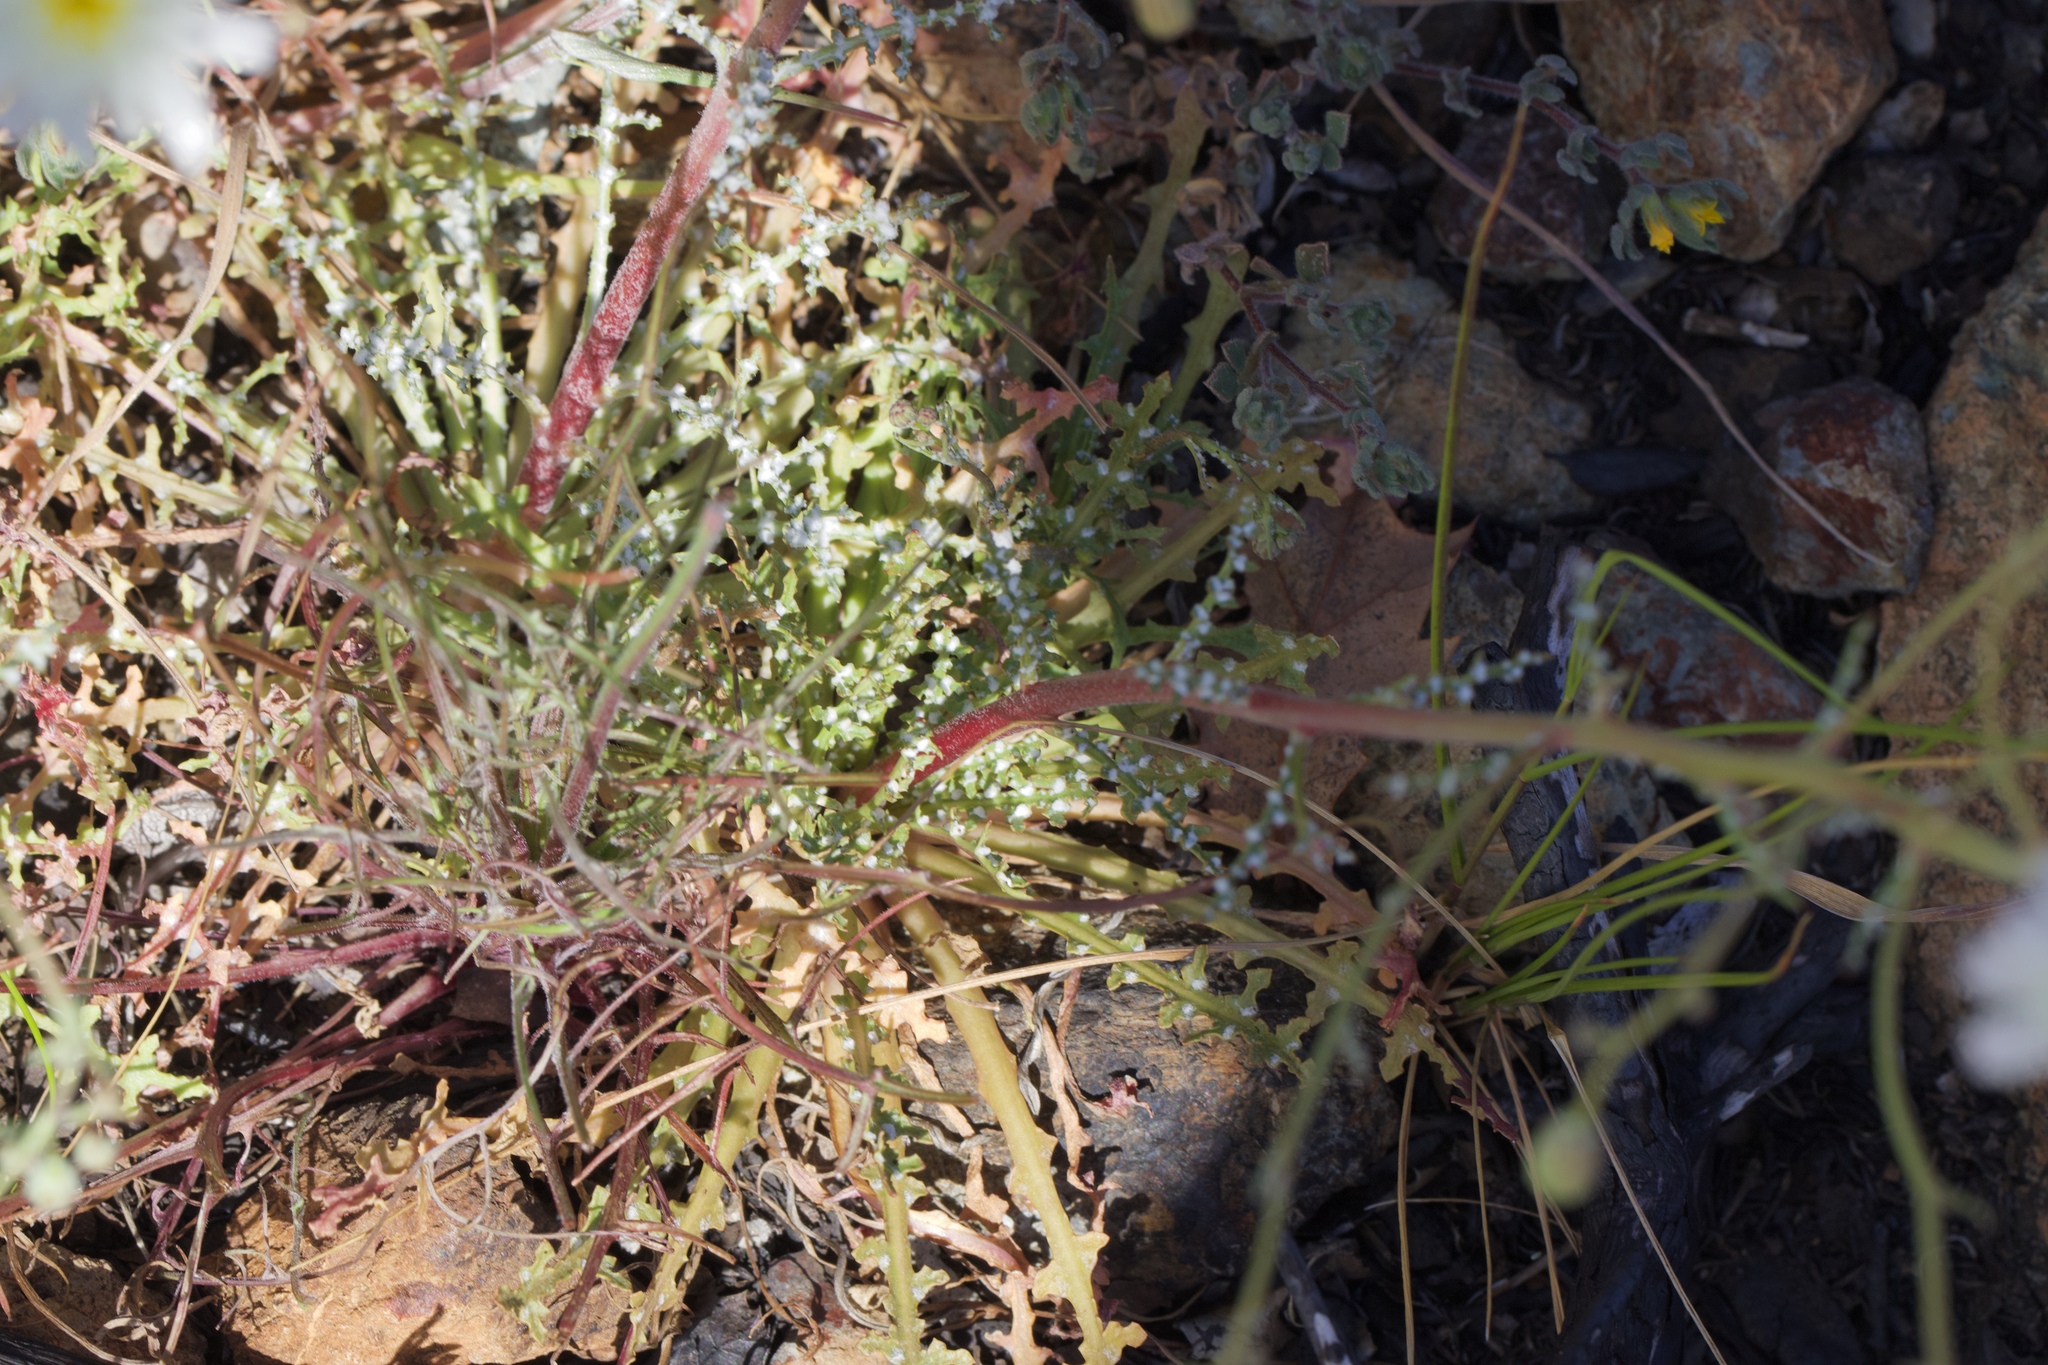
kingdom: Plantae
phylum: Tracheophyta
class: Magnoliopsida
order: Asterales
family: Asteraceae
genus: Malacothrix
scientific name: Malacothrix floccifera
